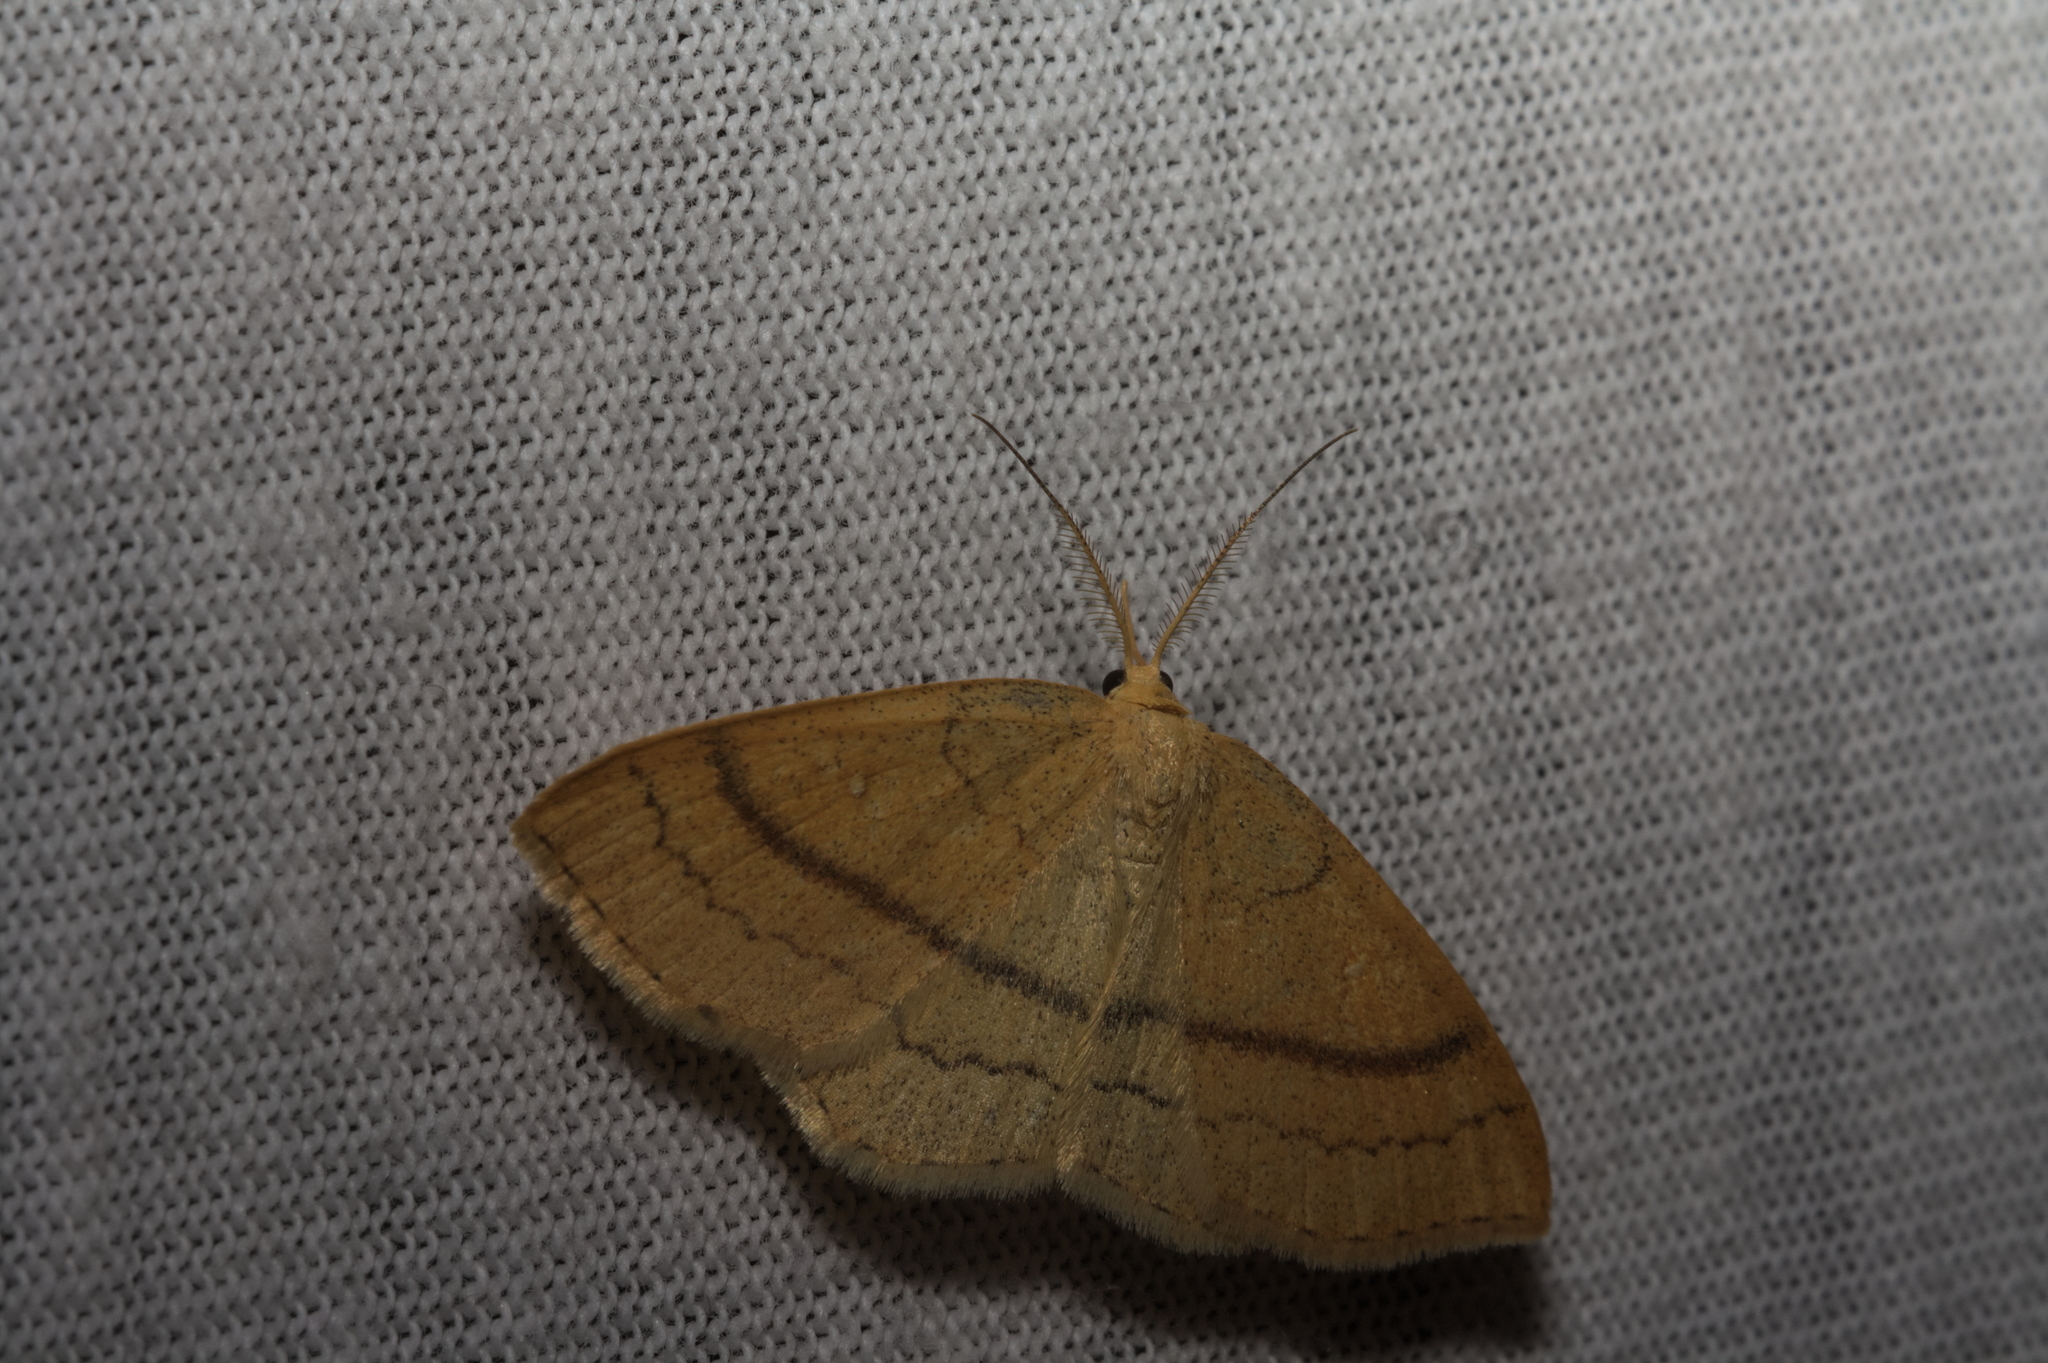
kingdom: Animalia
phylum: Arthropoda
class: Insecta
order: Lepidoptera
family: Geometridae
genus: Cyclophora
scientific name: Cyclophora linearia
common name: Clay triple-lines
